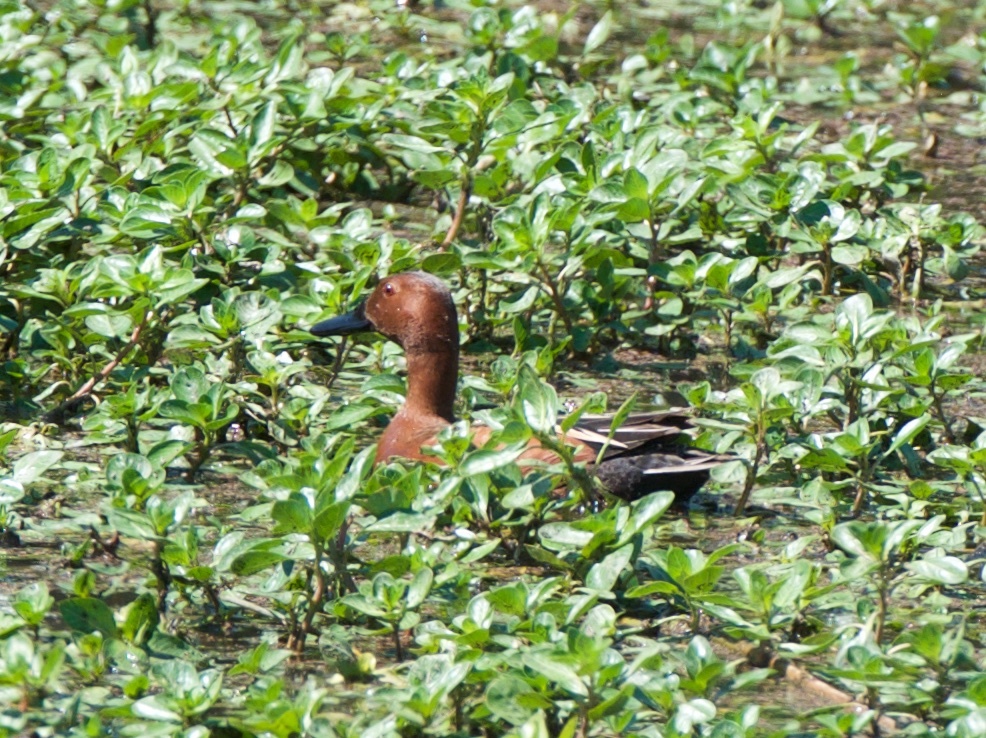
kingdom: Animalia
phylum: Chordata
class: Aves
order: Anseriformes
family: Anatidae
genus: Spatula
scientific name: Spatula cyanoptera
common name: Cinnamon teal
